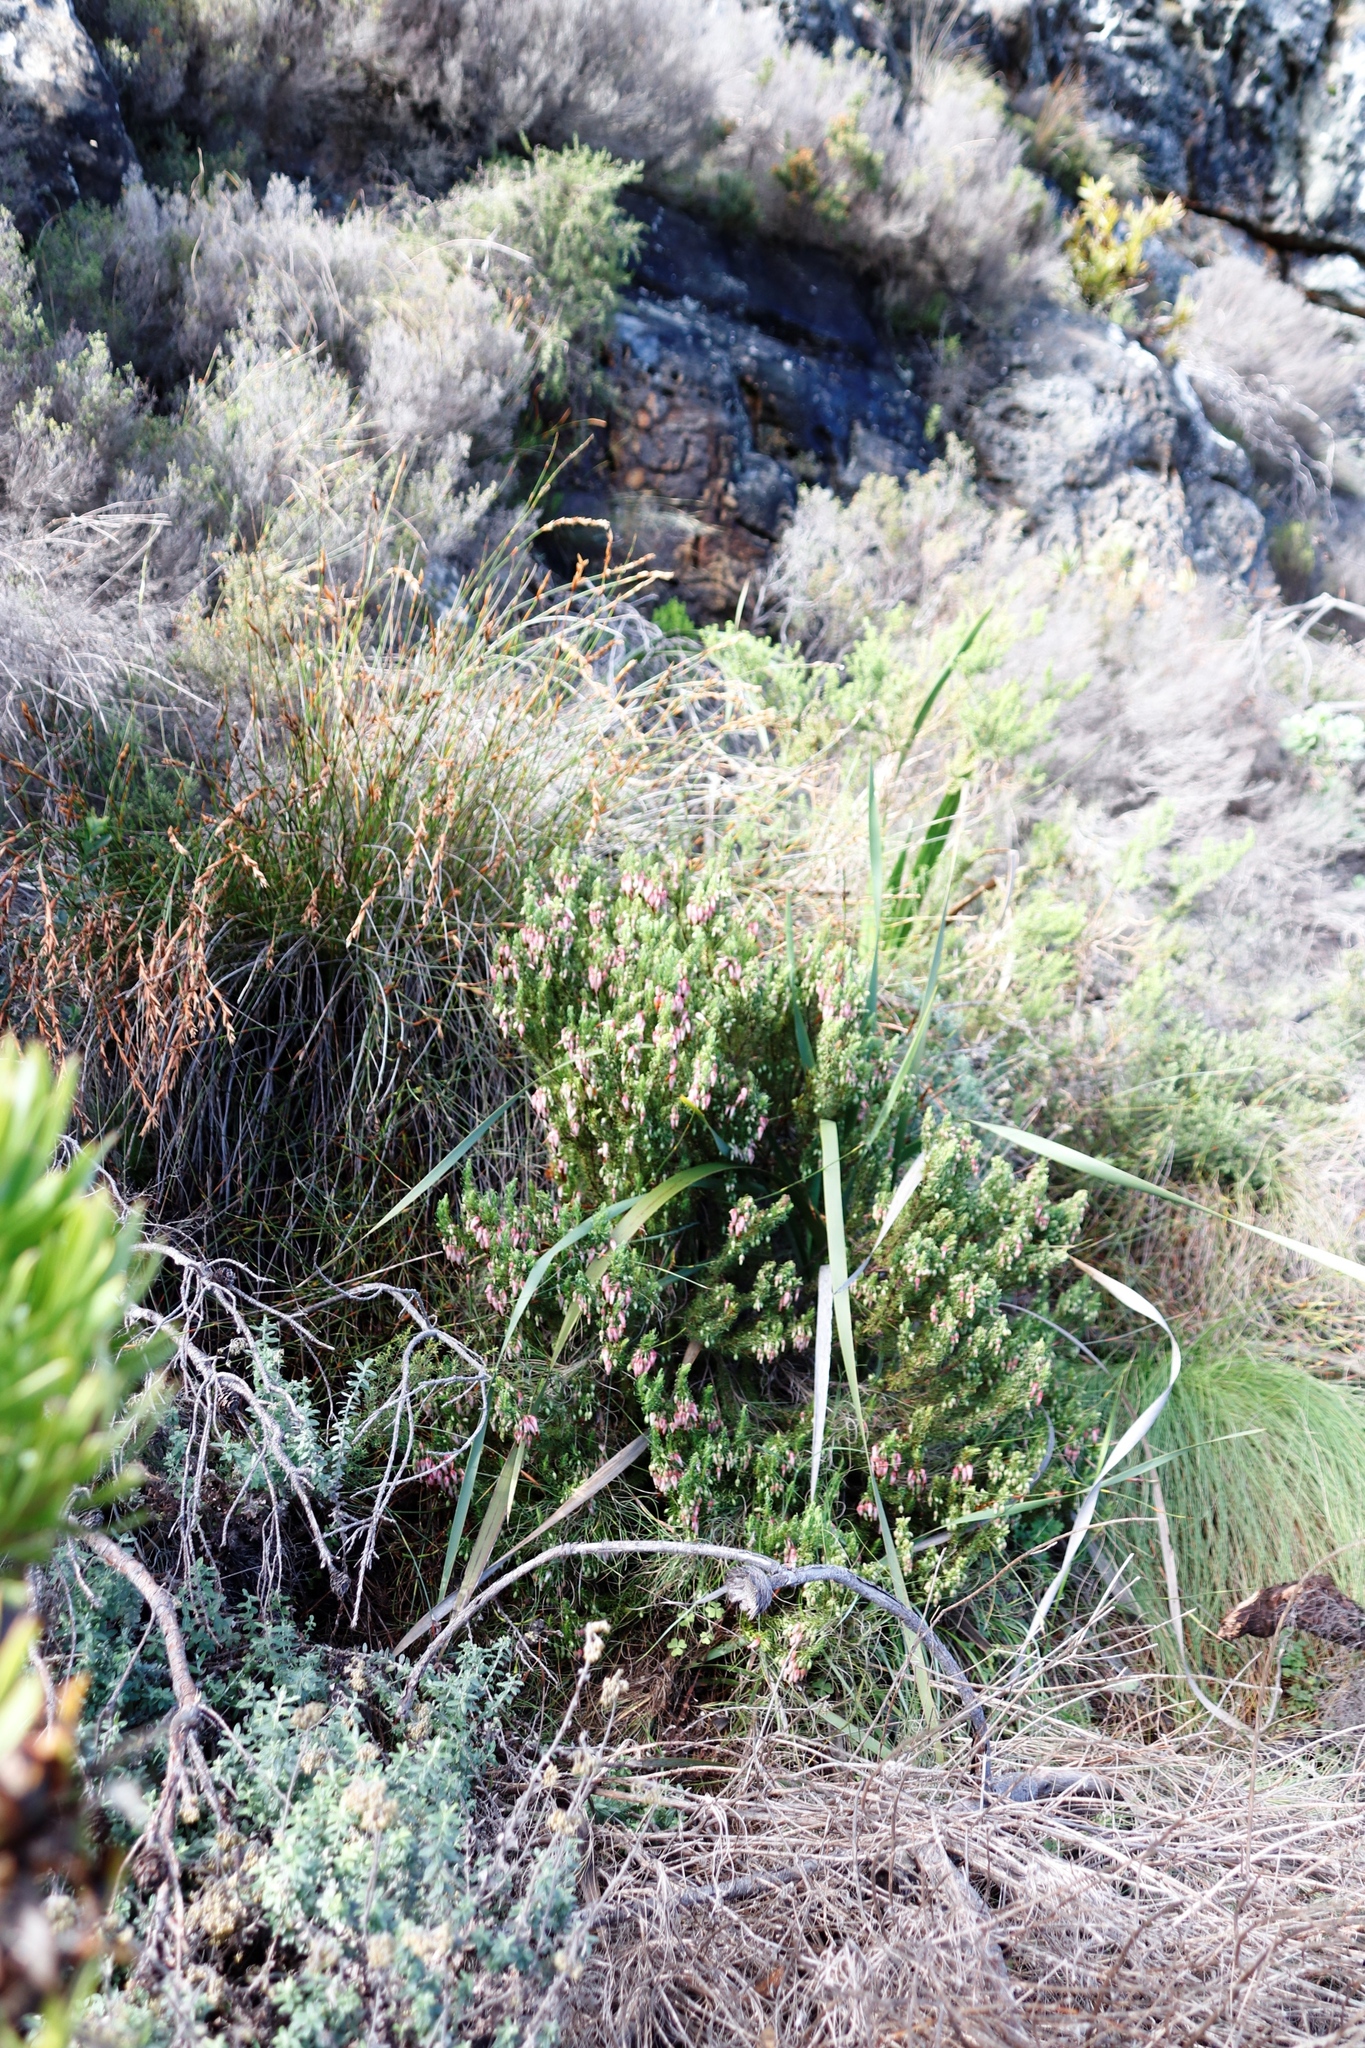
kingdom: Plantae
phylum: Tracheophyta
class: Magnoliopsida
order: Ericales
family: Ericaceae
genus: Erica
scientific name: Erica plukenetii
